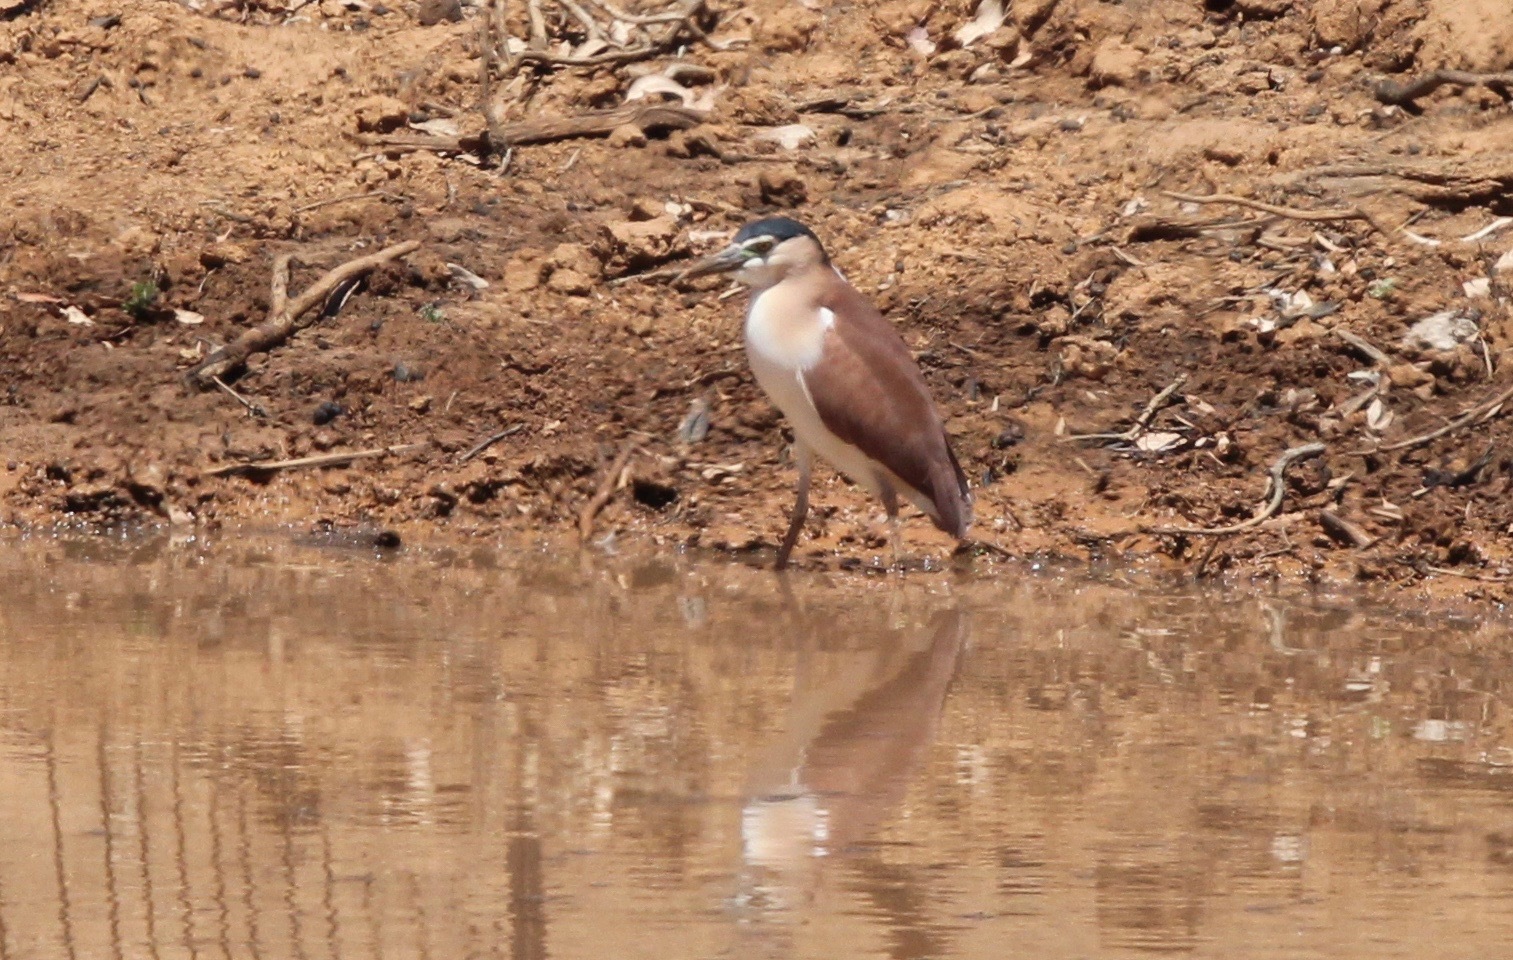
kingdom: Animalia
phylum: Chordata
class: Aves
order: Pelecaniformes
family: Ardeidae
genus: Nycticorax
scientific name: Nycticorax caledonicus
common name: Rufous night-heron
